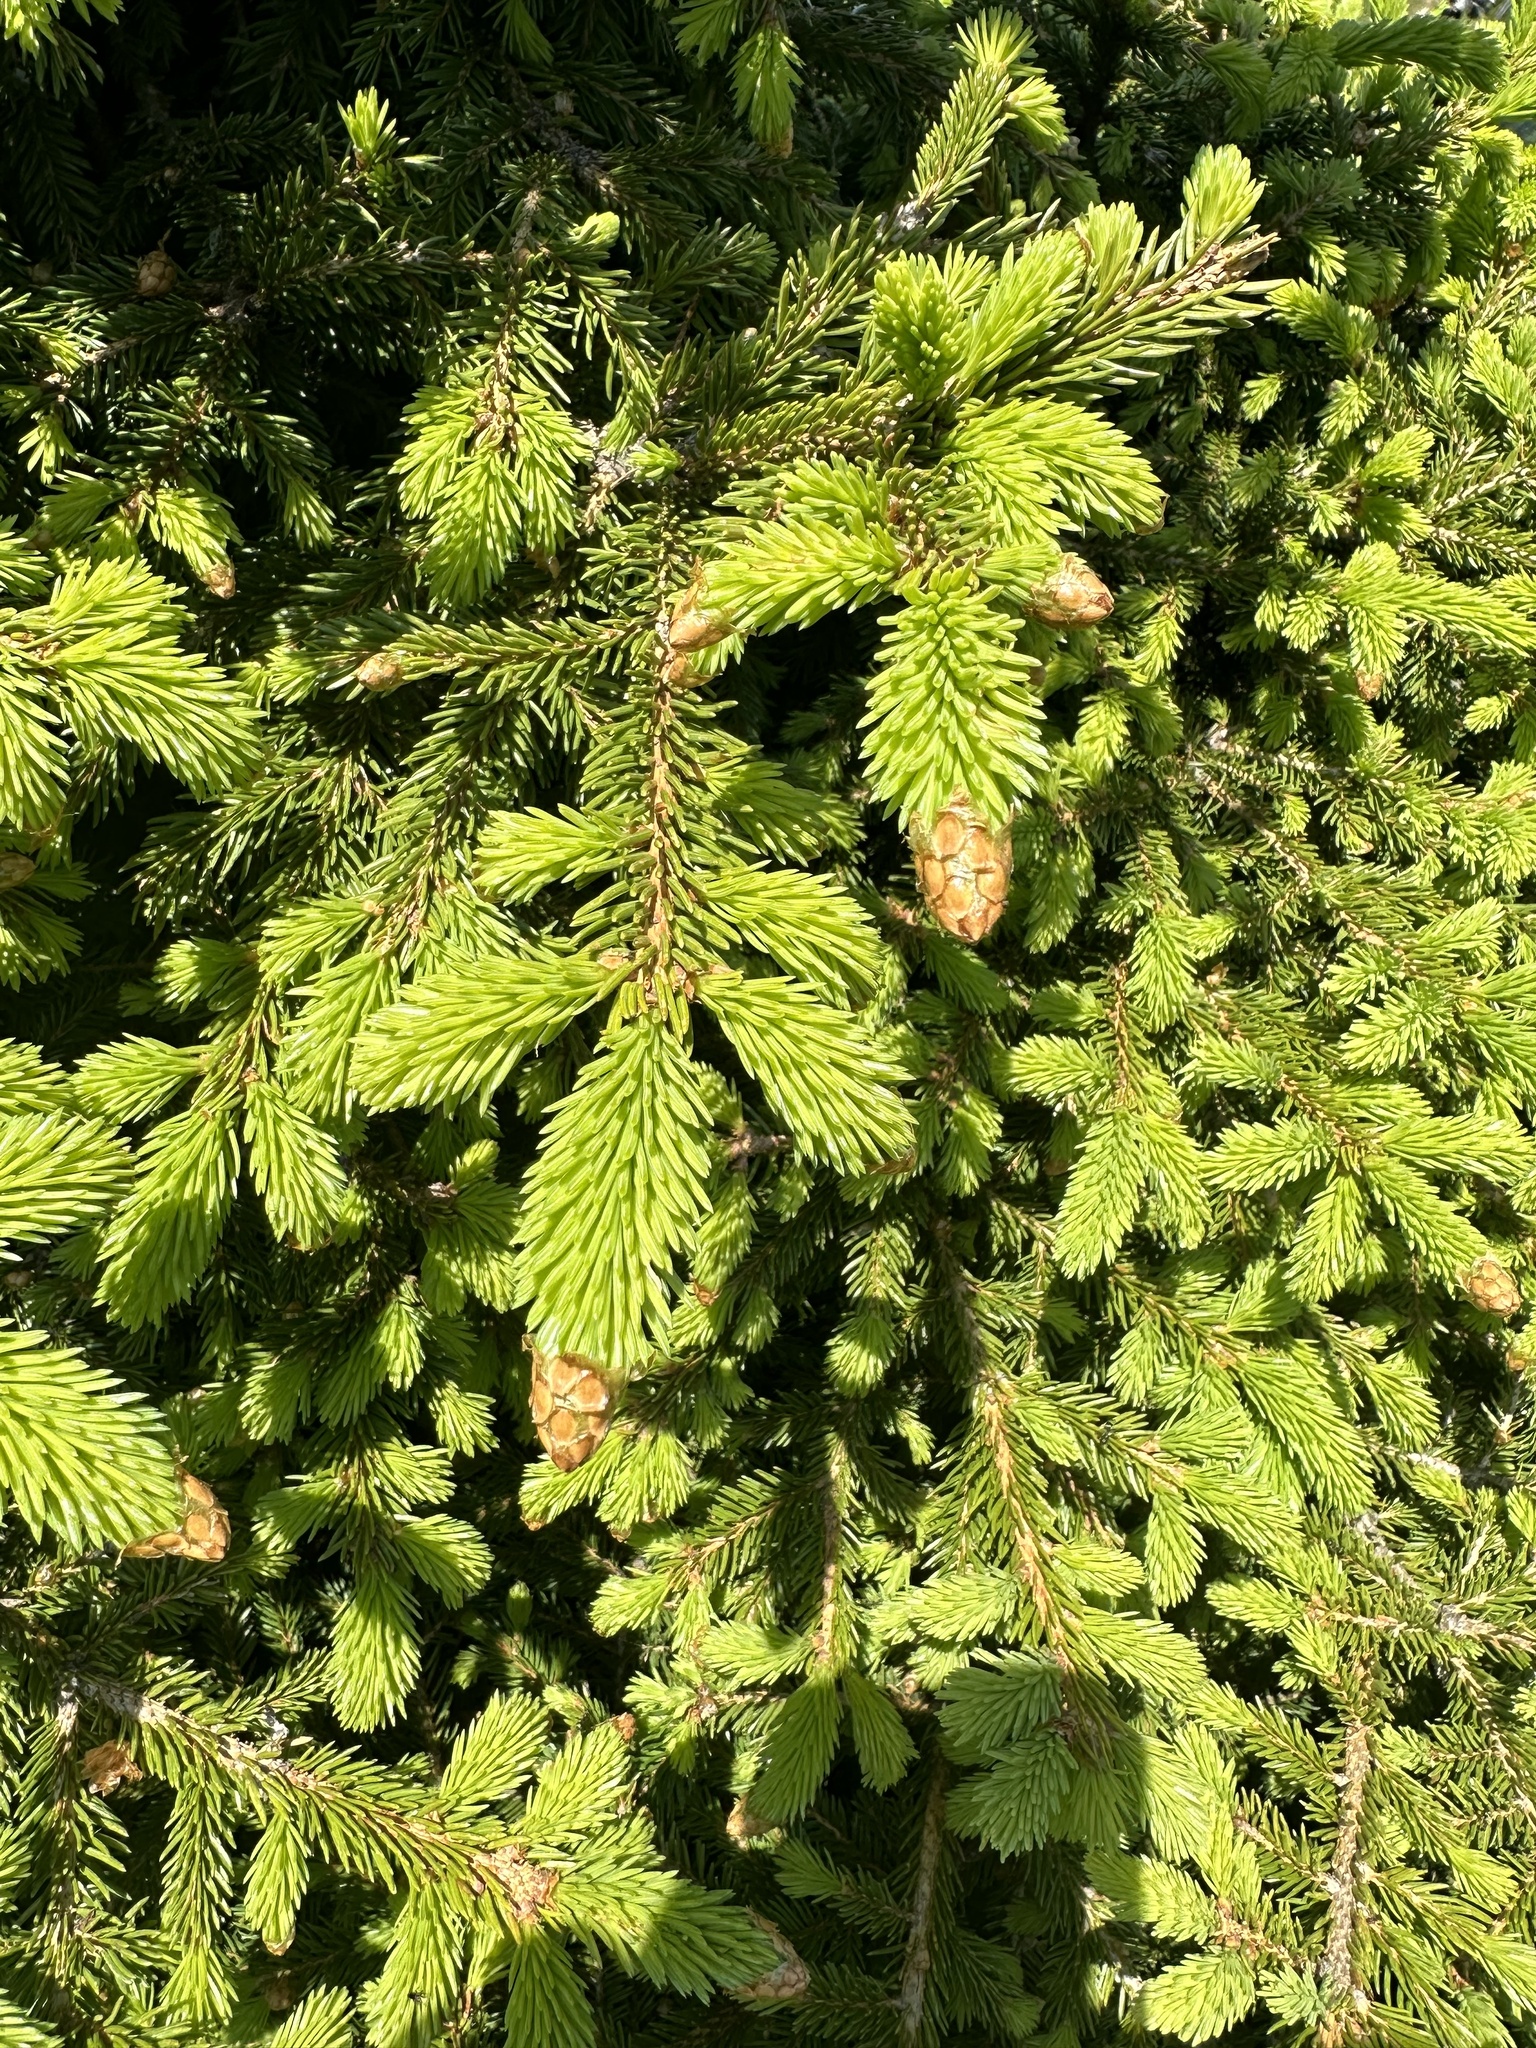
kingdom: Plantae
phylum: Tracheophyta
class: Pinopsida
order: Pinales
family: Pinaceae
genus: Picea
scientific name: Picea abies
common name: Norway spruce
